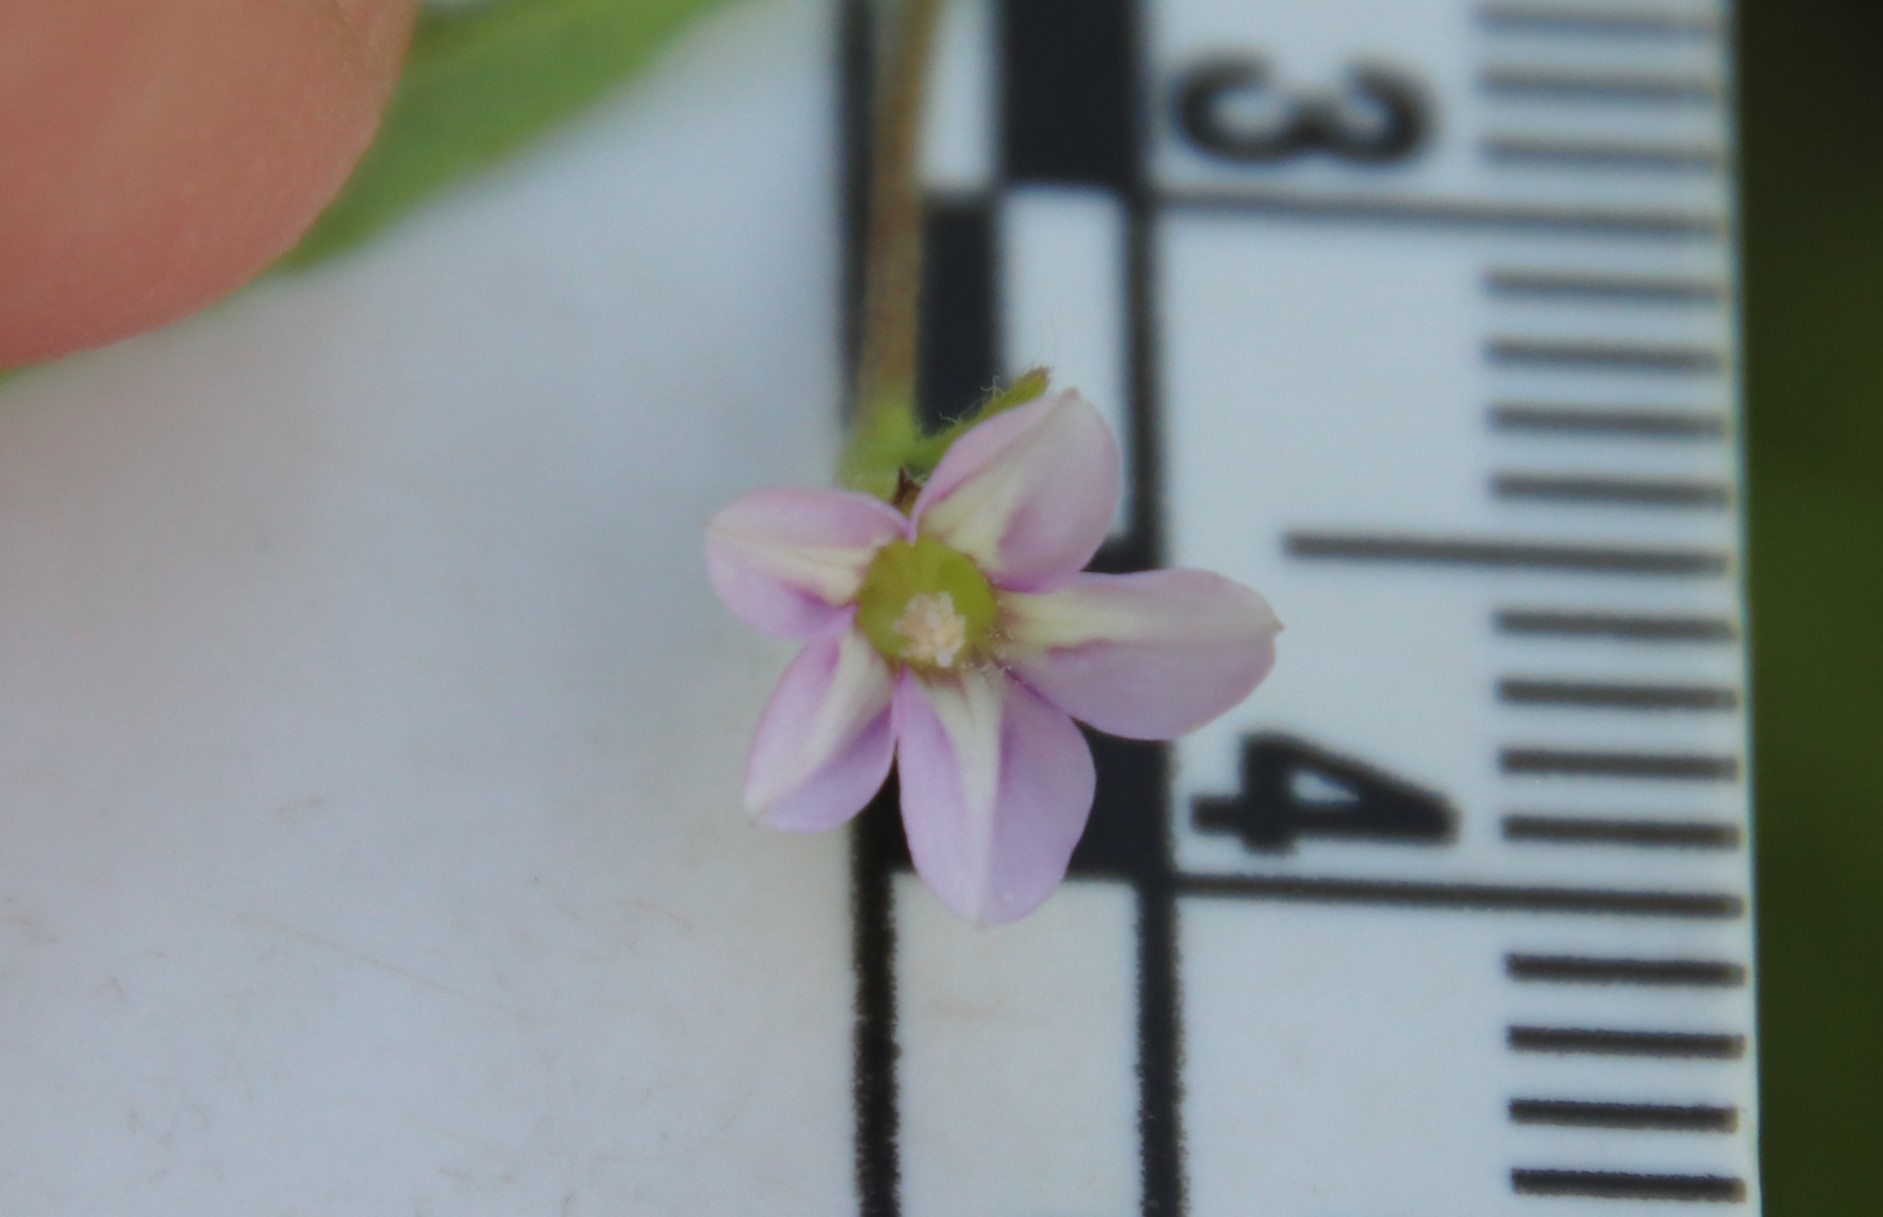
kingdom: Plantae
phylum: Tracheophyta
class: Magnoliopsida
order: Solanales
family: Convolvulaceae
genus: Convolvulus
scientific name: Convolvulus simulans
